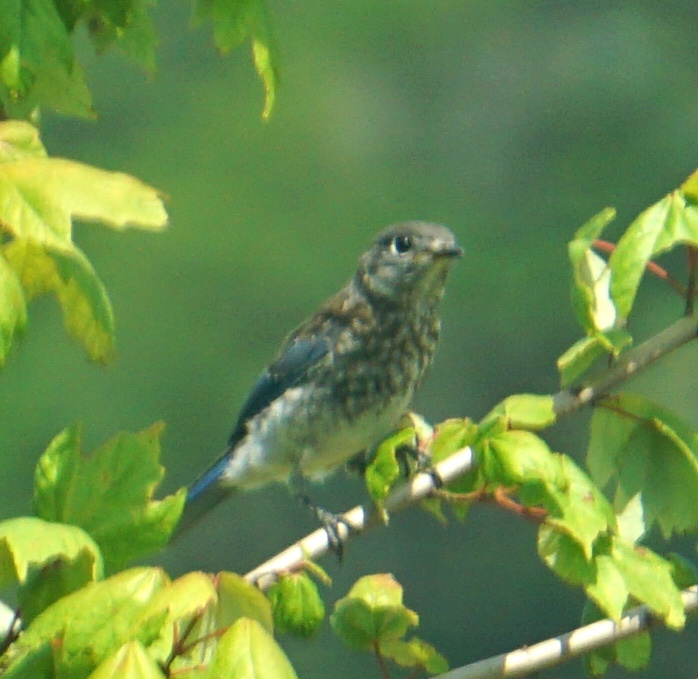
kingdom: Animalia
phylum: Chordata
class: Aves
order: Passeriformes
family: Turdidae
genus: Sialia
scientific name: Sialia sialis
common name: Eastern bluebird
